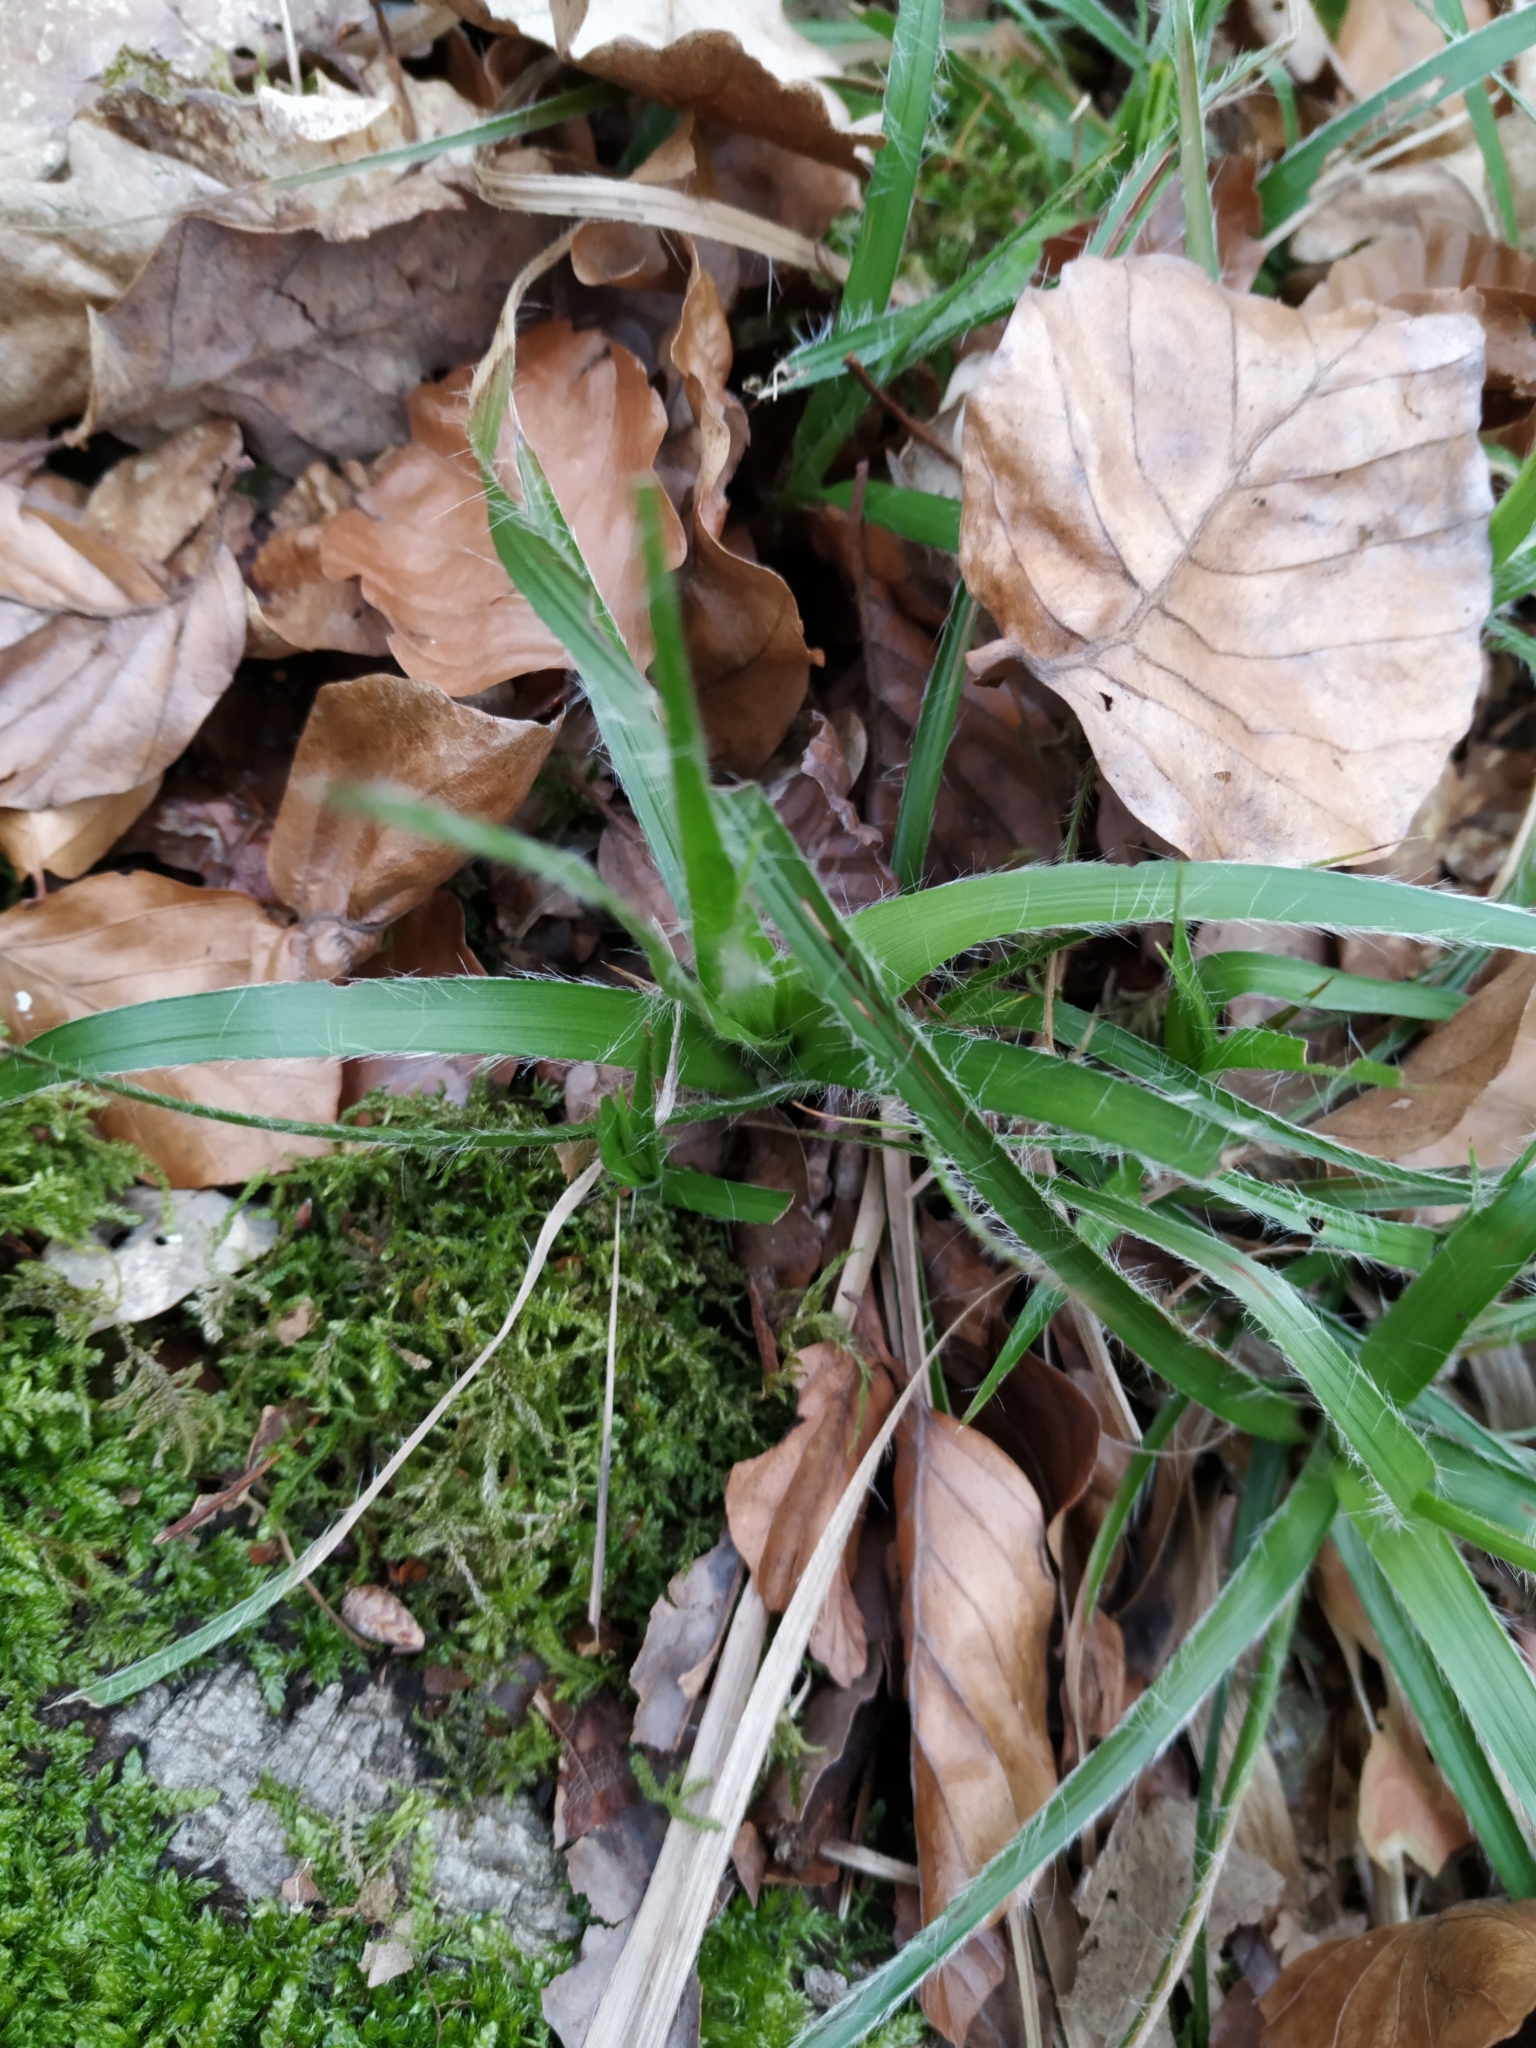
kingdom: Plantae
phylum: Tracheophyta
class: Liliopsida
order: Poales
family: Juncaceae
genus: Luzula
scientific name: Luzula luzuloides
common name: White wood-rush
